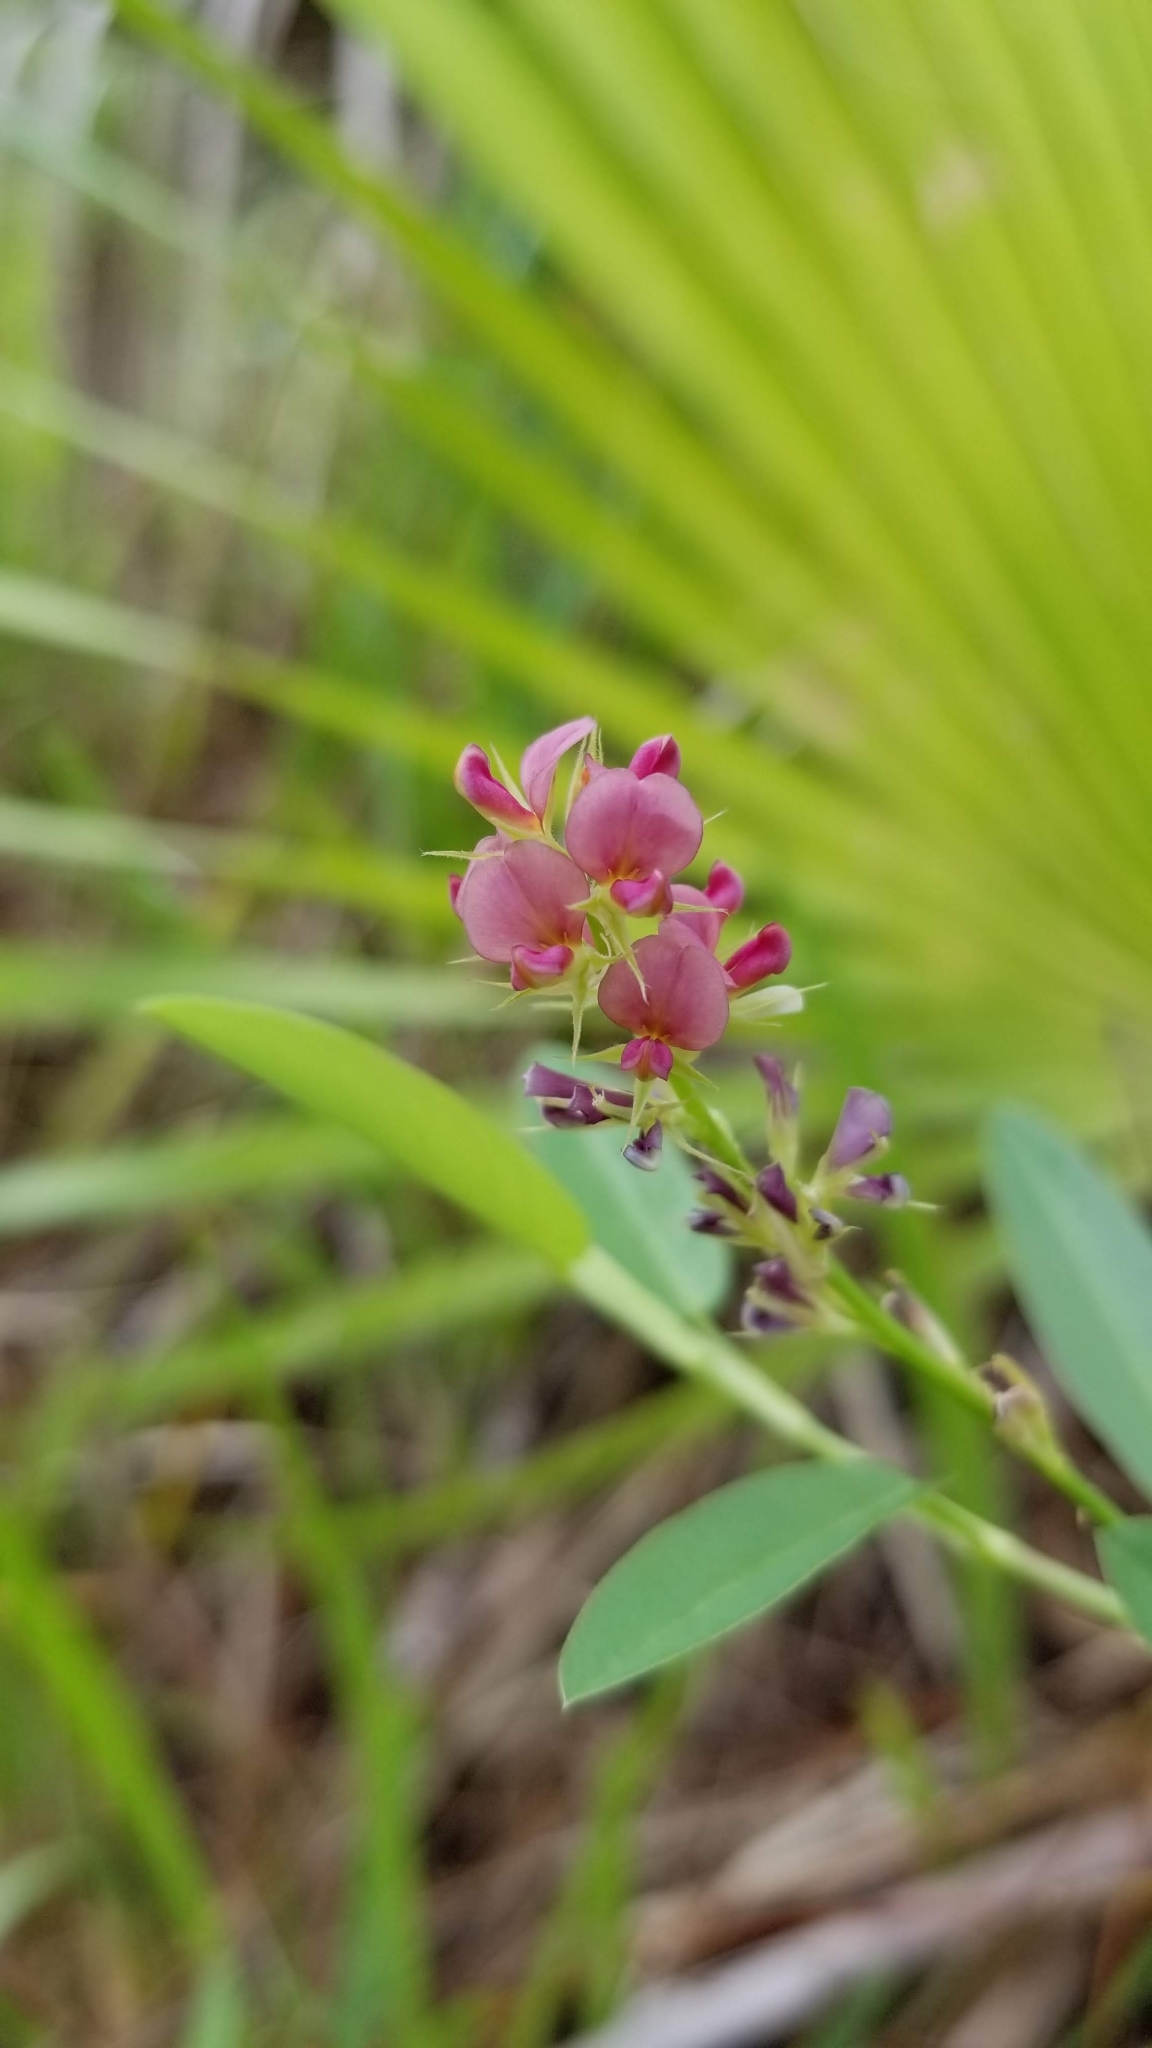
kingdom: Plantae
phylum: Tracheophyta
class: Magnoliopsida
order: Fabales
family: Fabaceae
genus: Alysicarpus
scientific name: Alysicarpus vaginalis
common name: White moneywort
